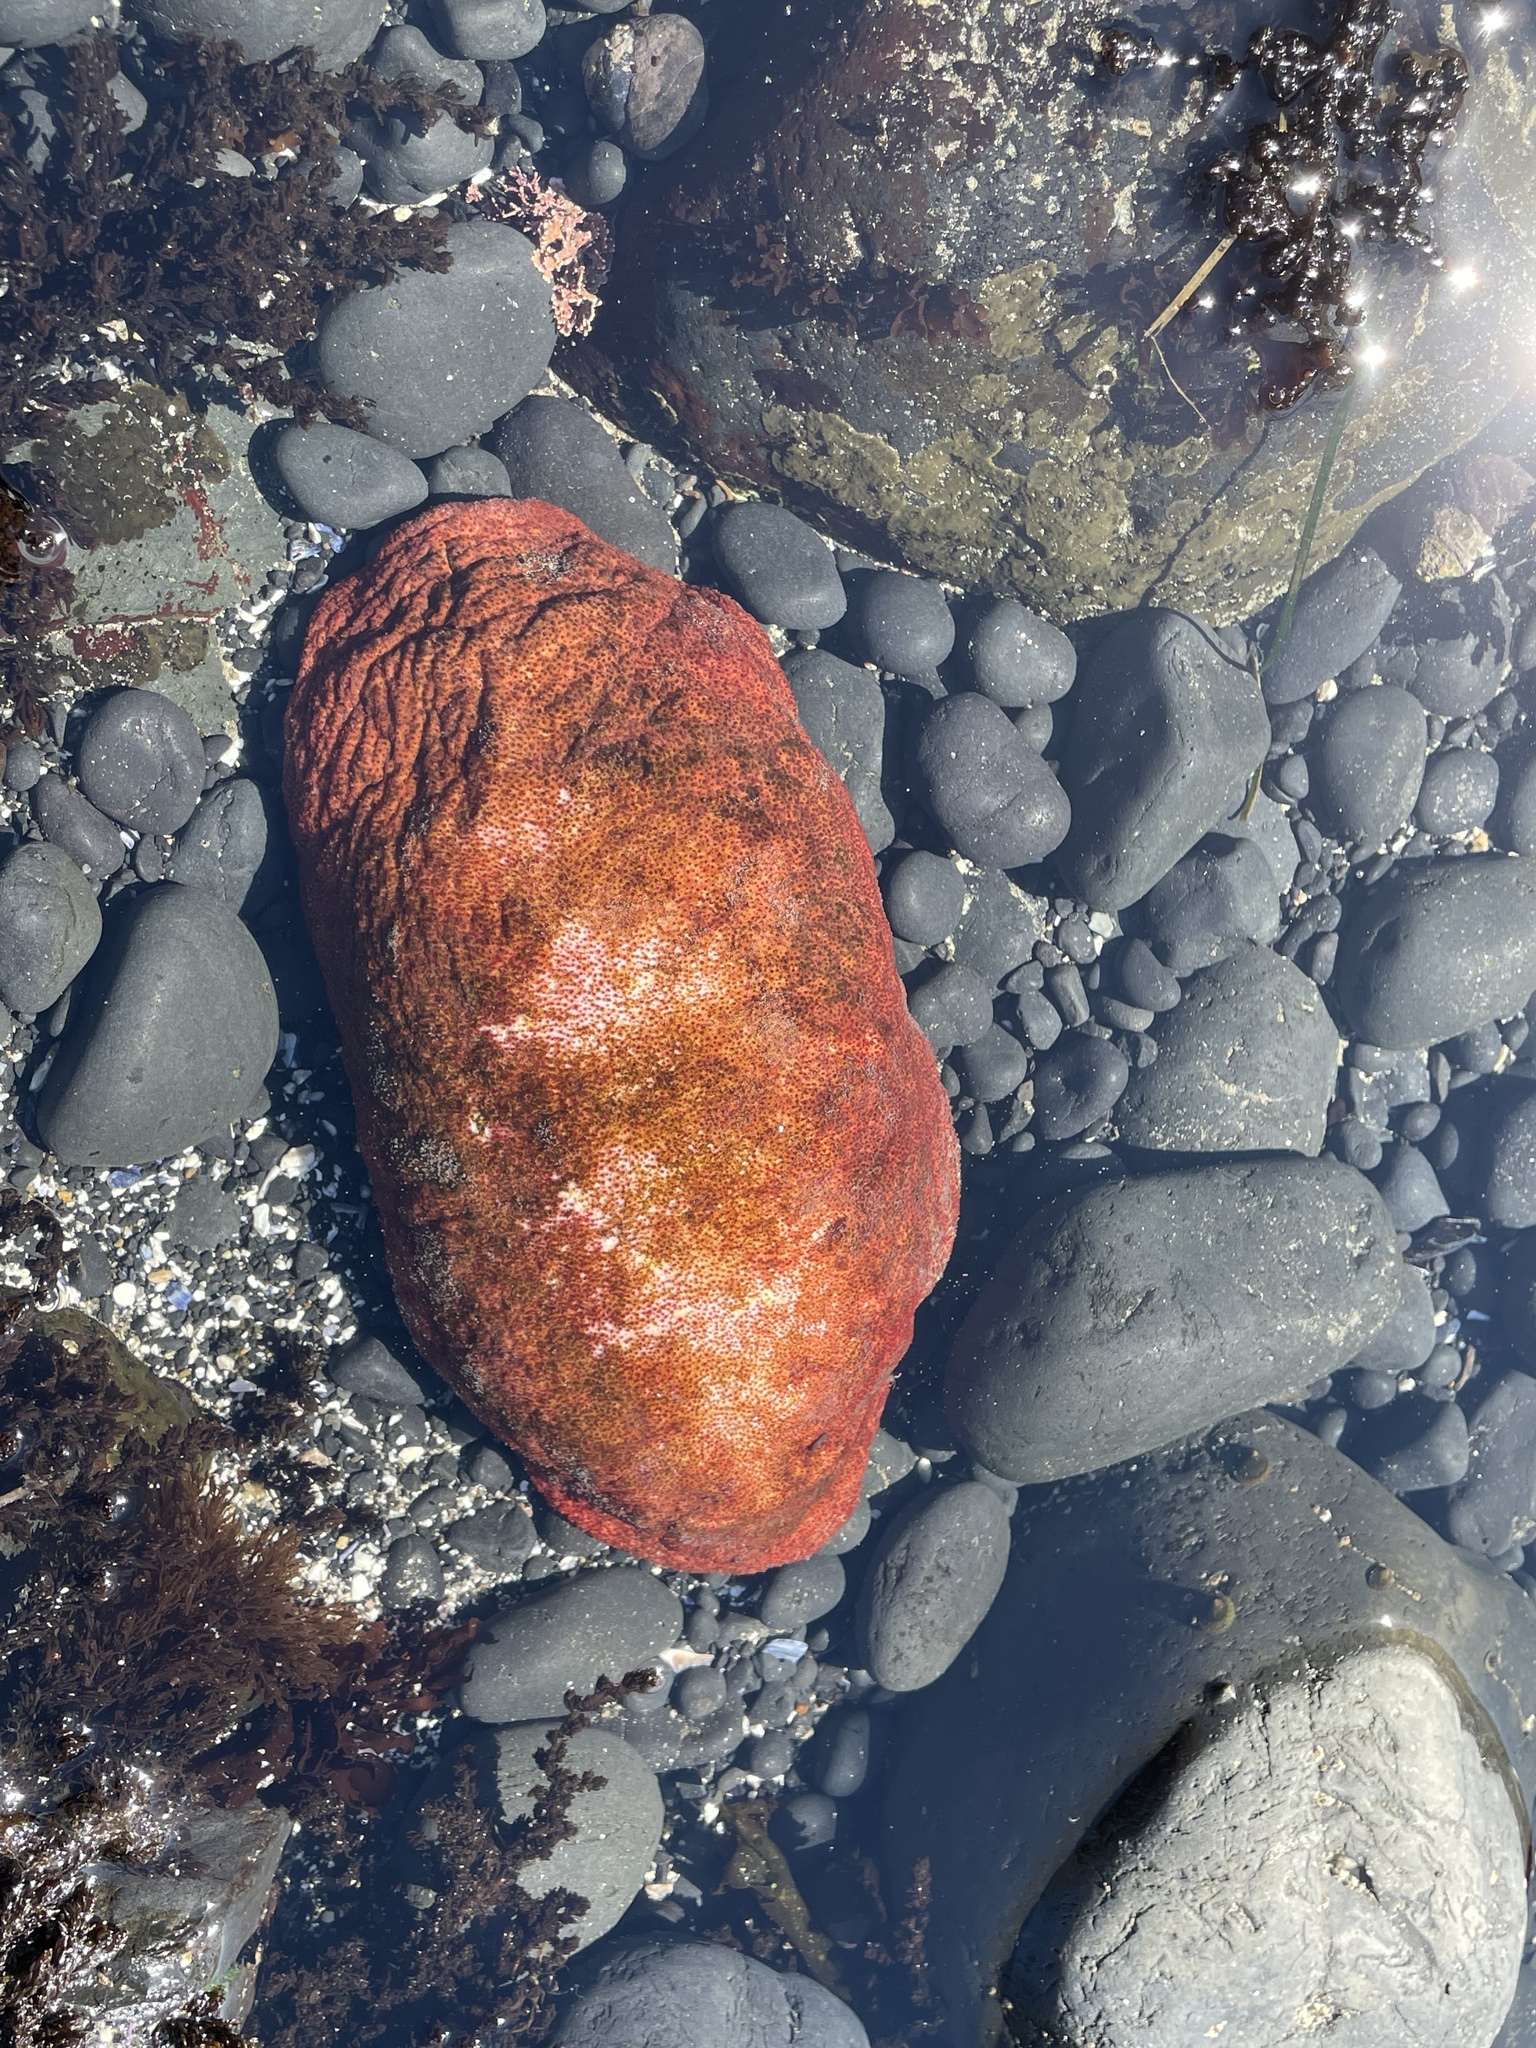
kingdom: Animalia
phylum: Mollusca
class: Polyplacophora
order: Chitonida
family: Acanthochitonidae
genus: Cryptochiton
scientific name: Cryptochiton stelleri
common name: Giant pacific chiton
